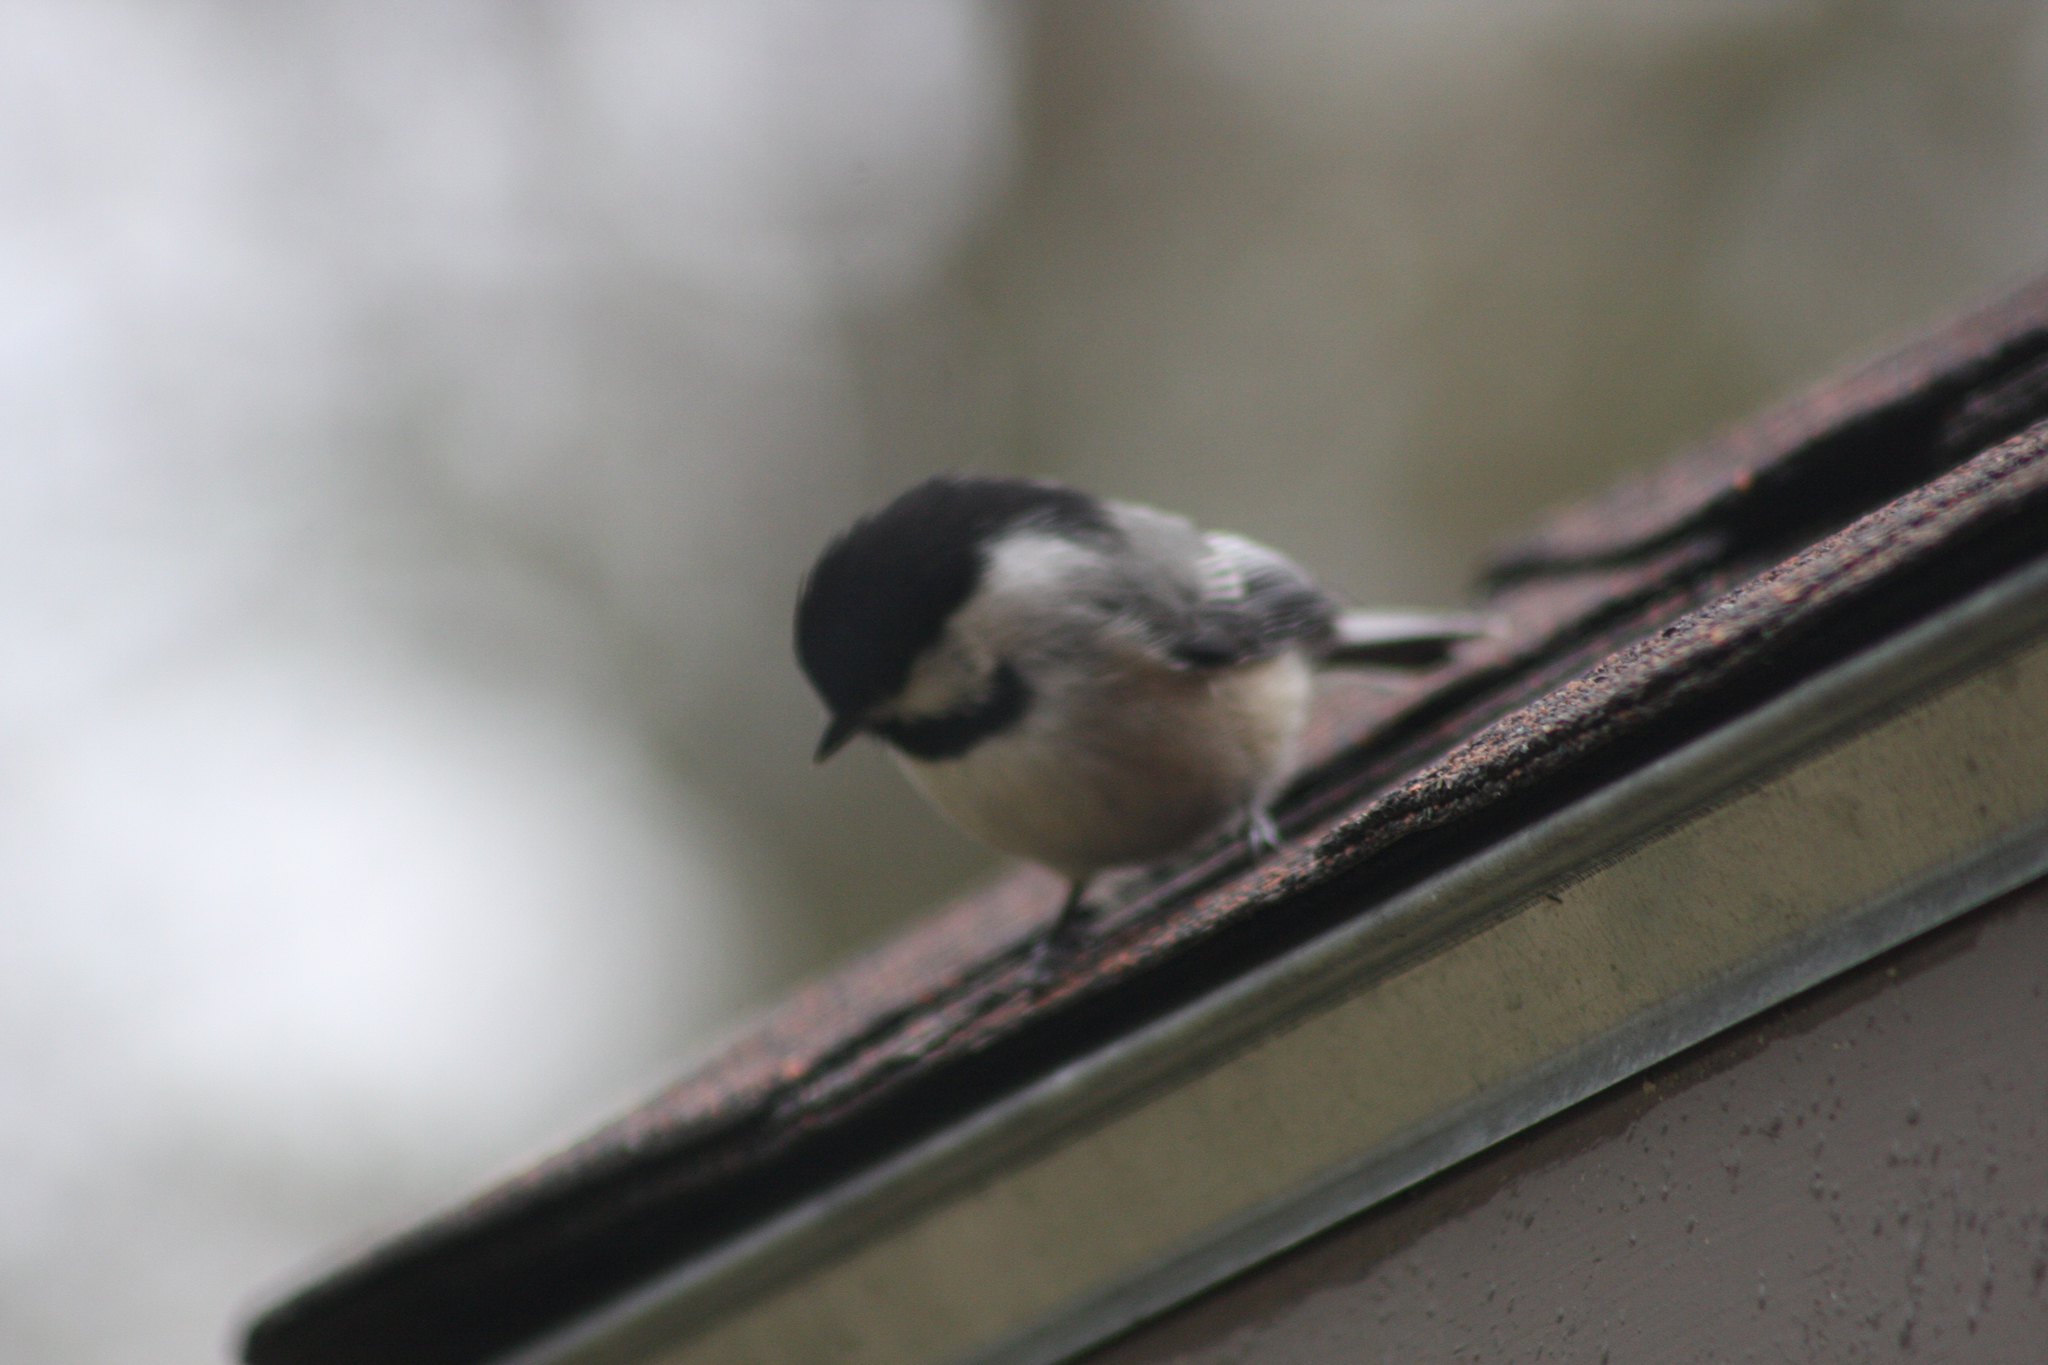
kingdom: Animalia
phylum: Chordata
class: Aves
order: Passeriformes
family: Paridae
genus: Poecile
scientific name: Poecile atricapillus
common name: Black-capped chickadee
